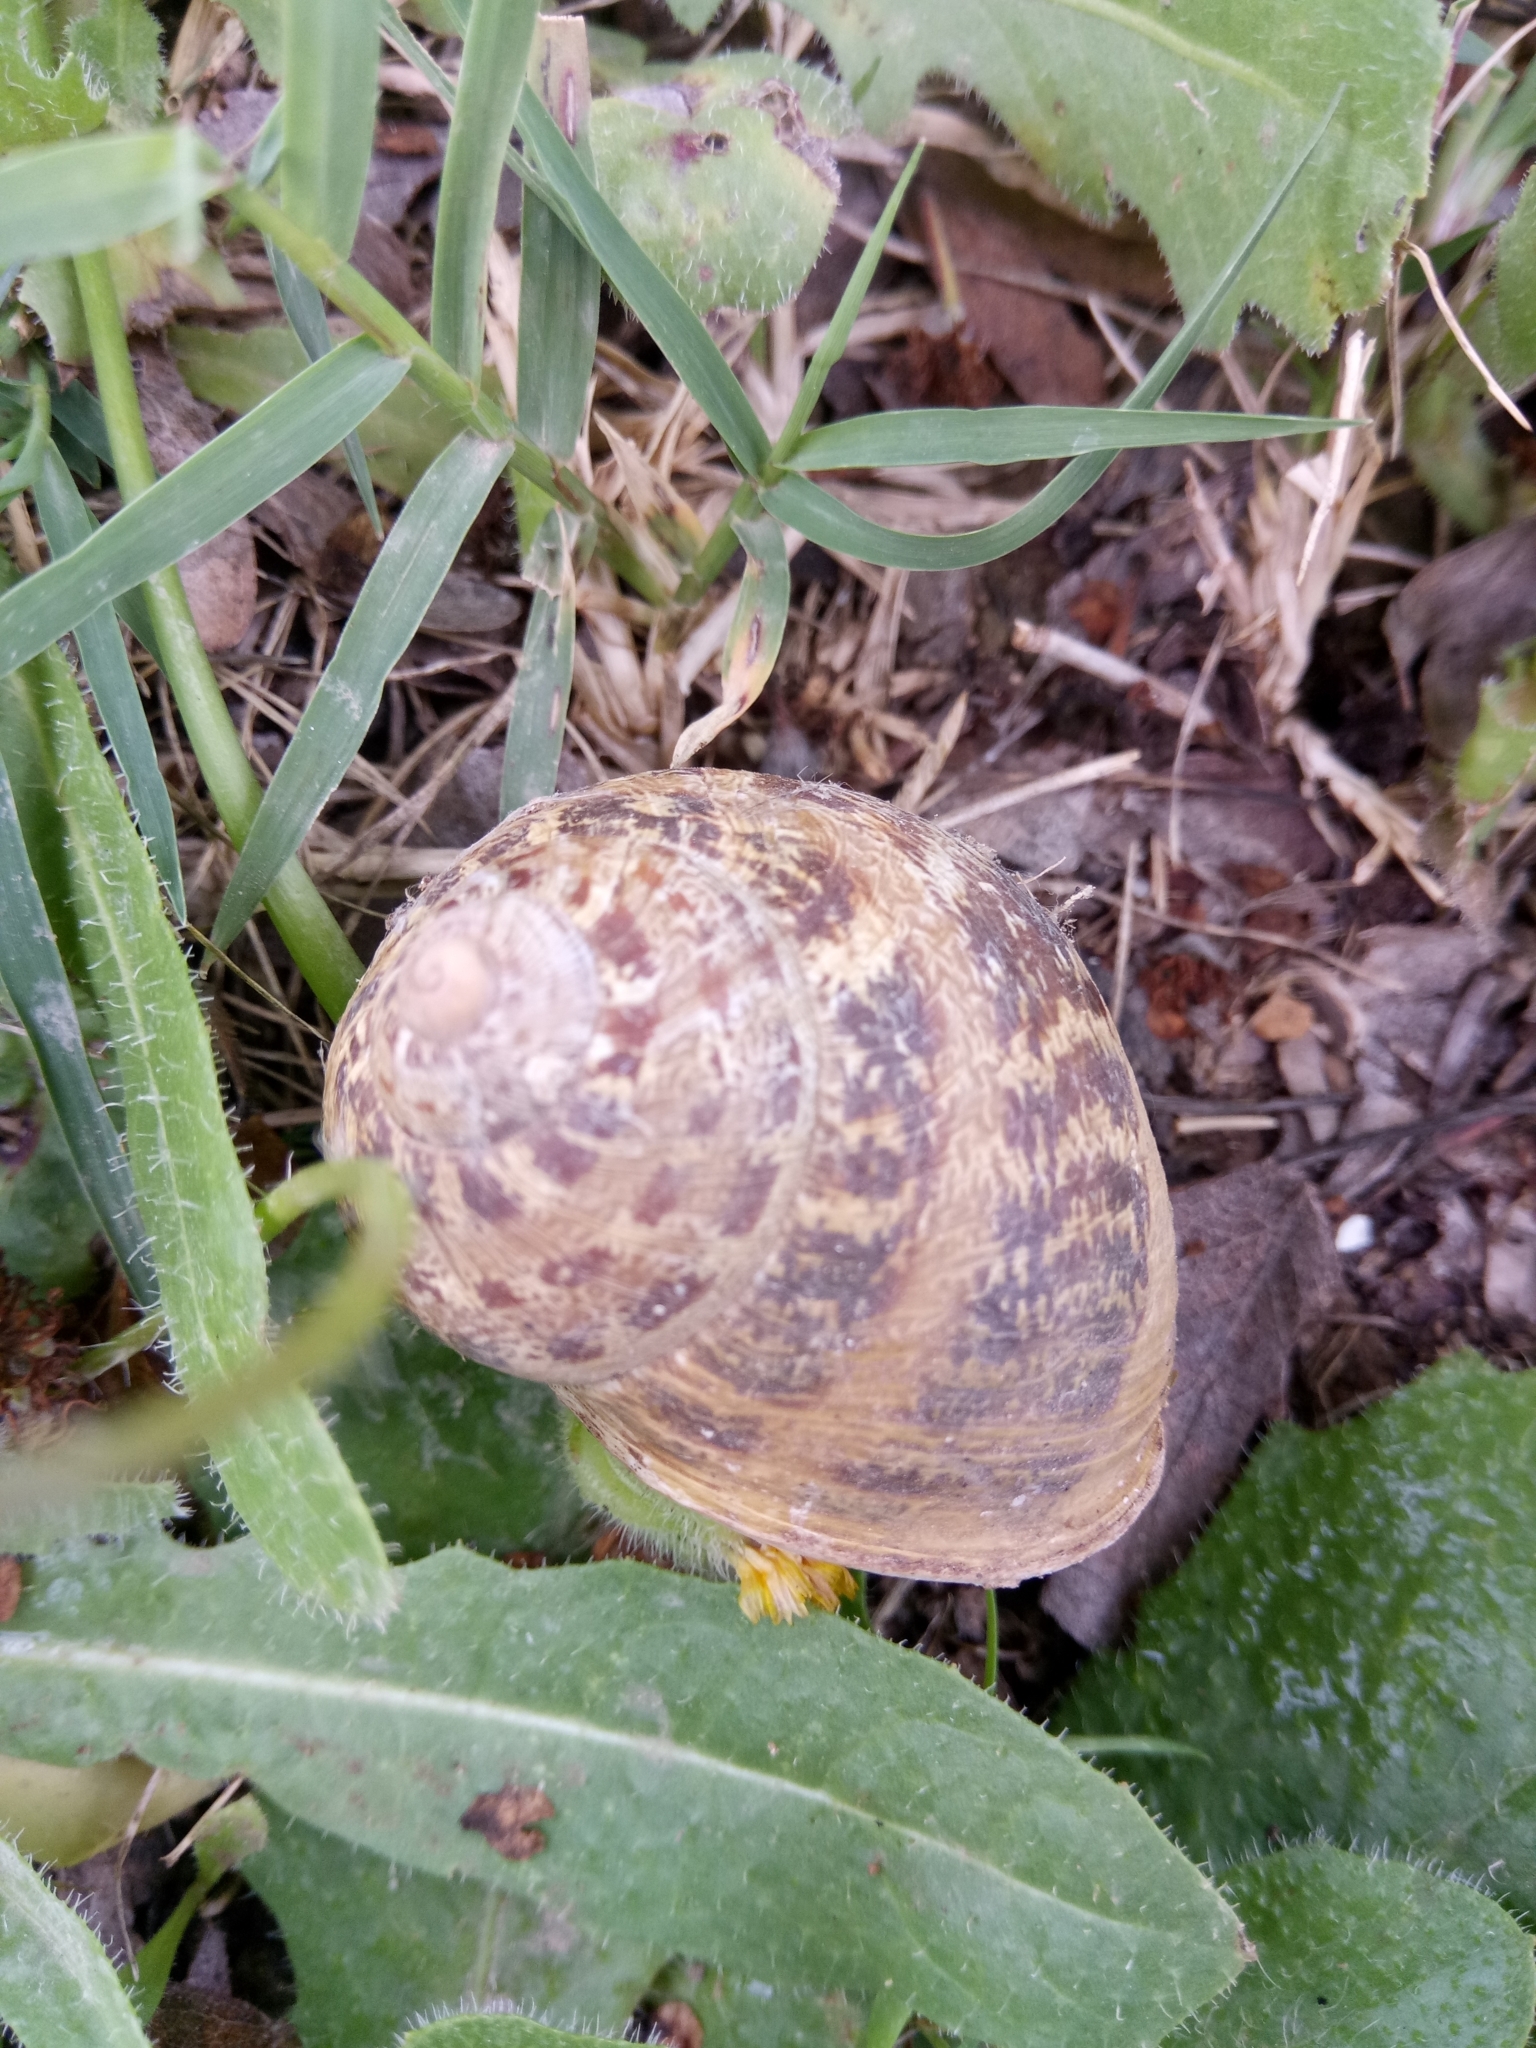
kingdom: Animalia
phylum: Mollusca
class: Gastropoda
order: Stylommatophora
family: Helicidae
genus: Cornu
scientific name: Cornu aspersum
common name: Brown garden snail
